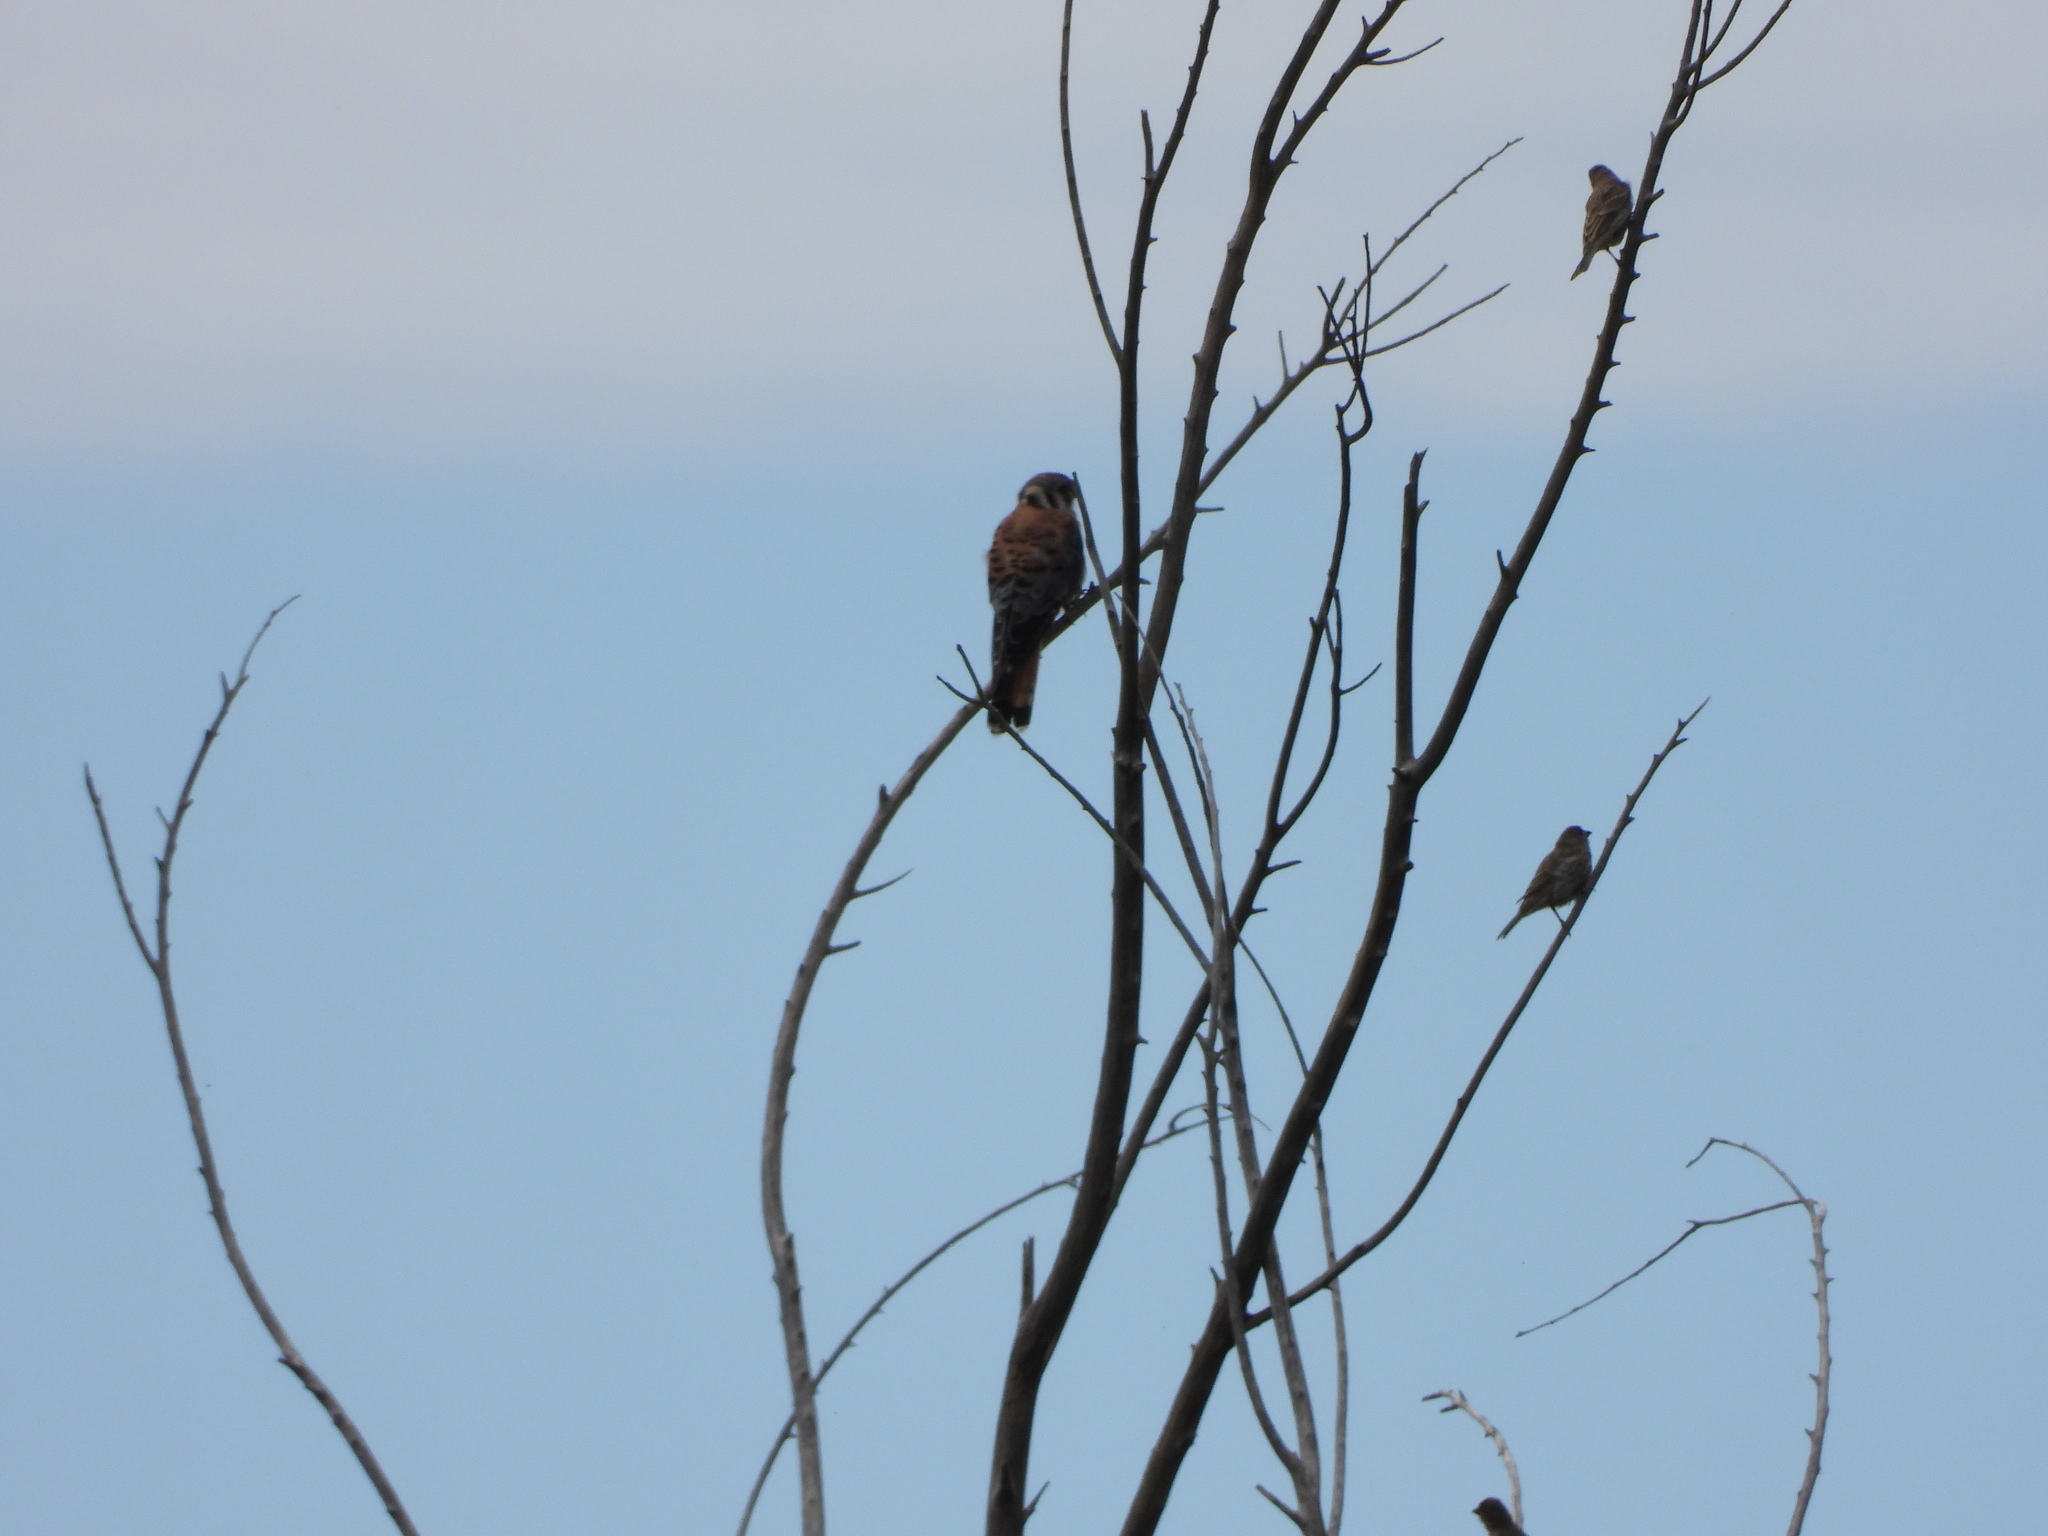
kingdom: Animalia
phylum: Chordata
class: Aves
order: Falconiformes
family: Falconidae
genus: Falco
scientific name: Falco sparverius
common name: American kestrel
